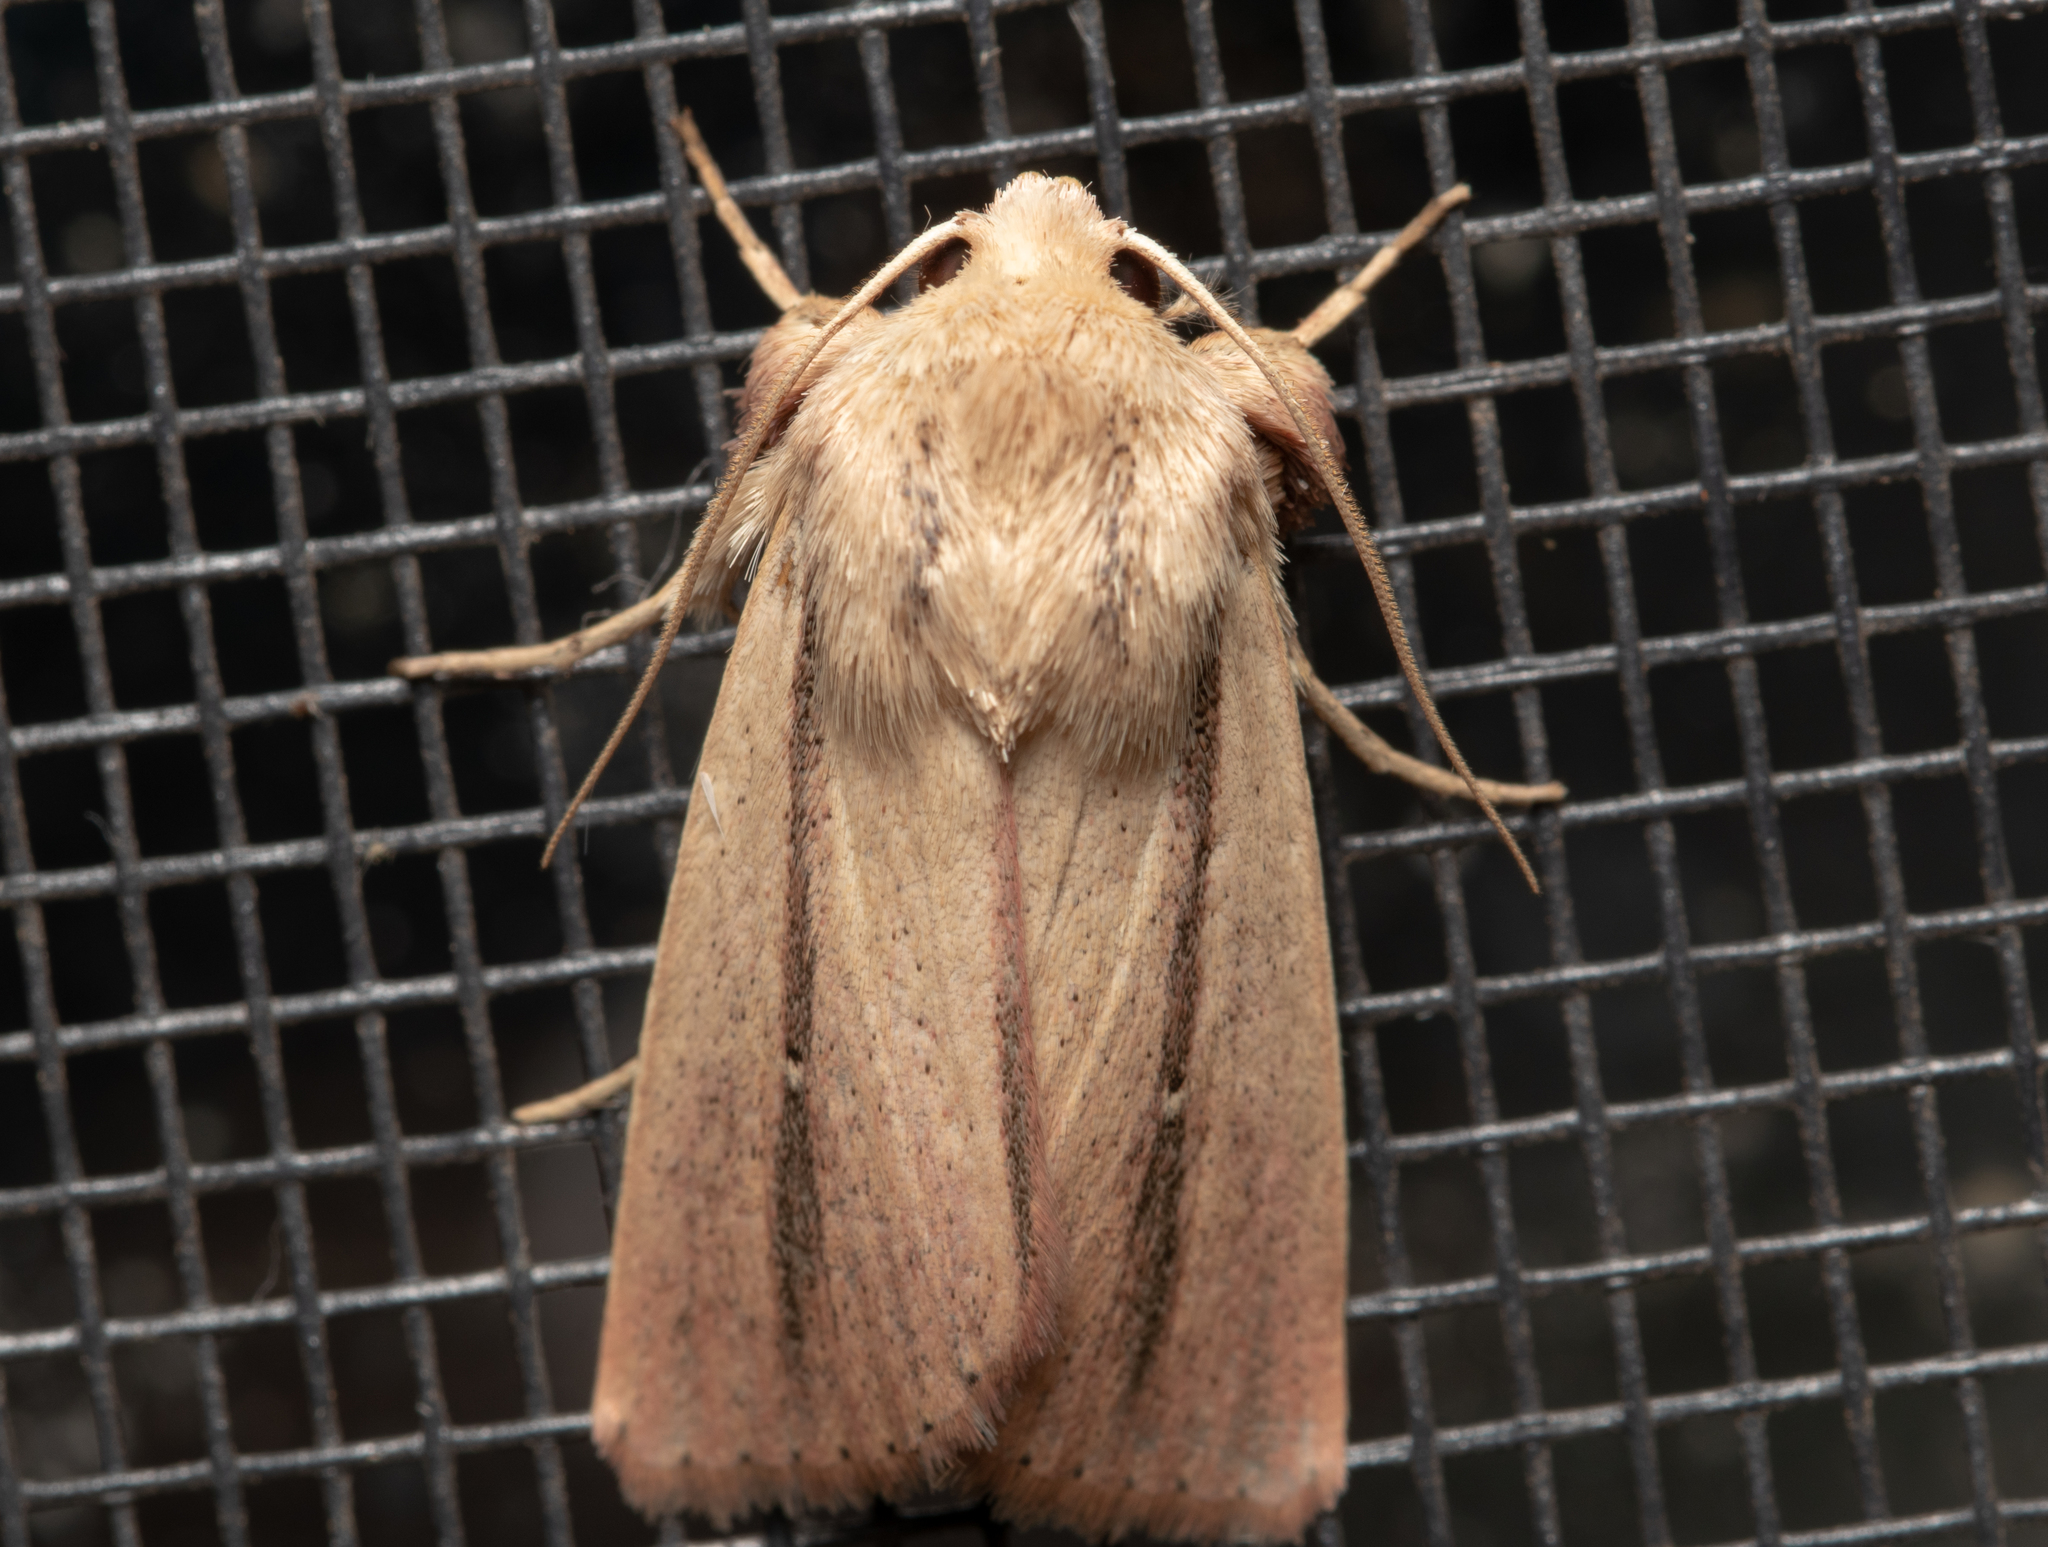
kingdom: Animalia
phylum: Arthropoda
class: Insecta
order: Lepidoptera
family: Noctuidae
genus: Leucania
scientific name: Leucania diatrecta
